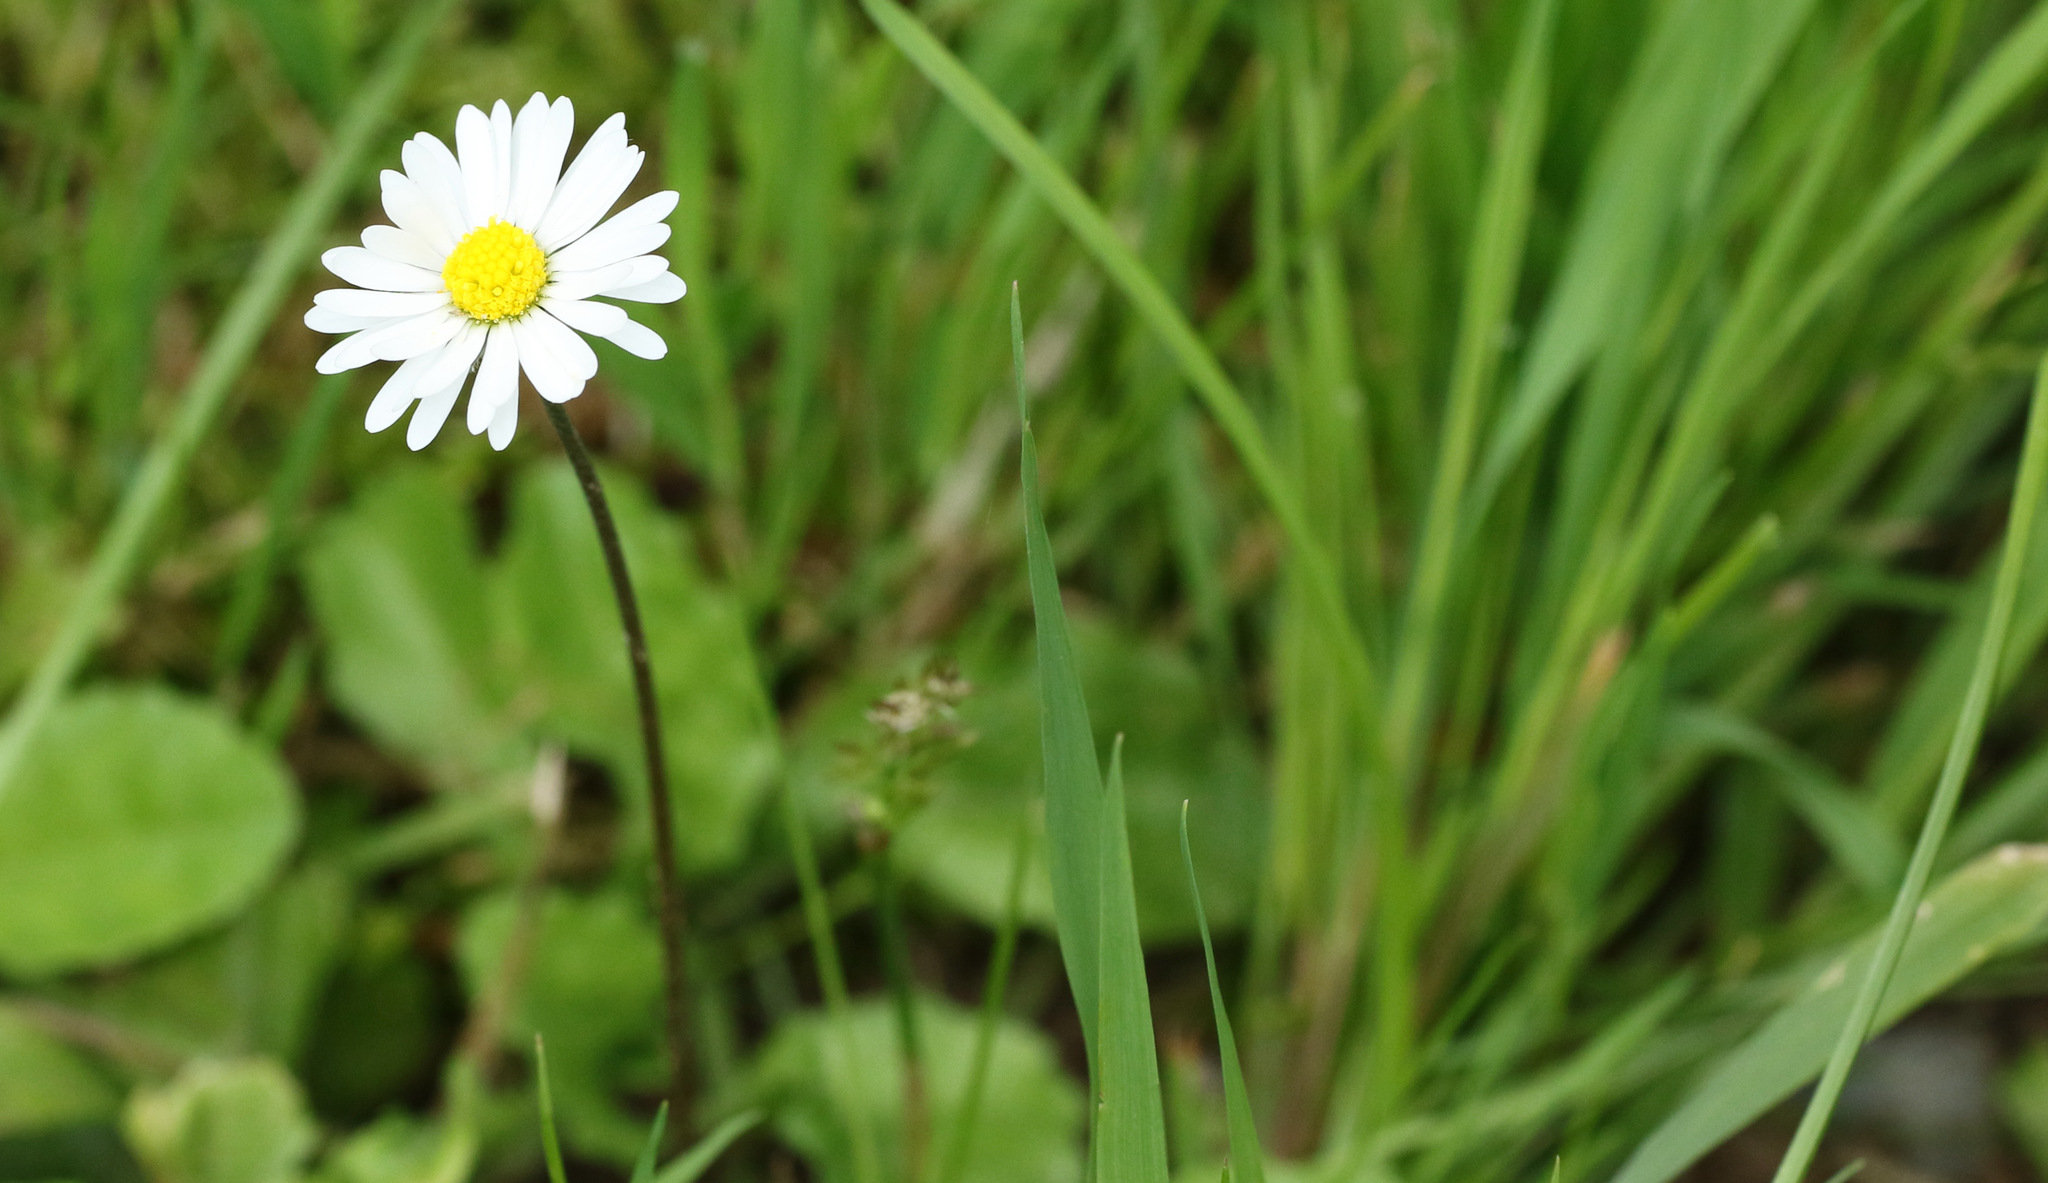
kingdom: Plantae
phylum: Tracheophyta
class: Magnoliopsida
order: Asterales
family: Asteraceae
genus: Bellis
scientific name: Bellis perennis
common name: Lawndaisy
